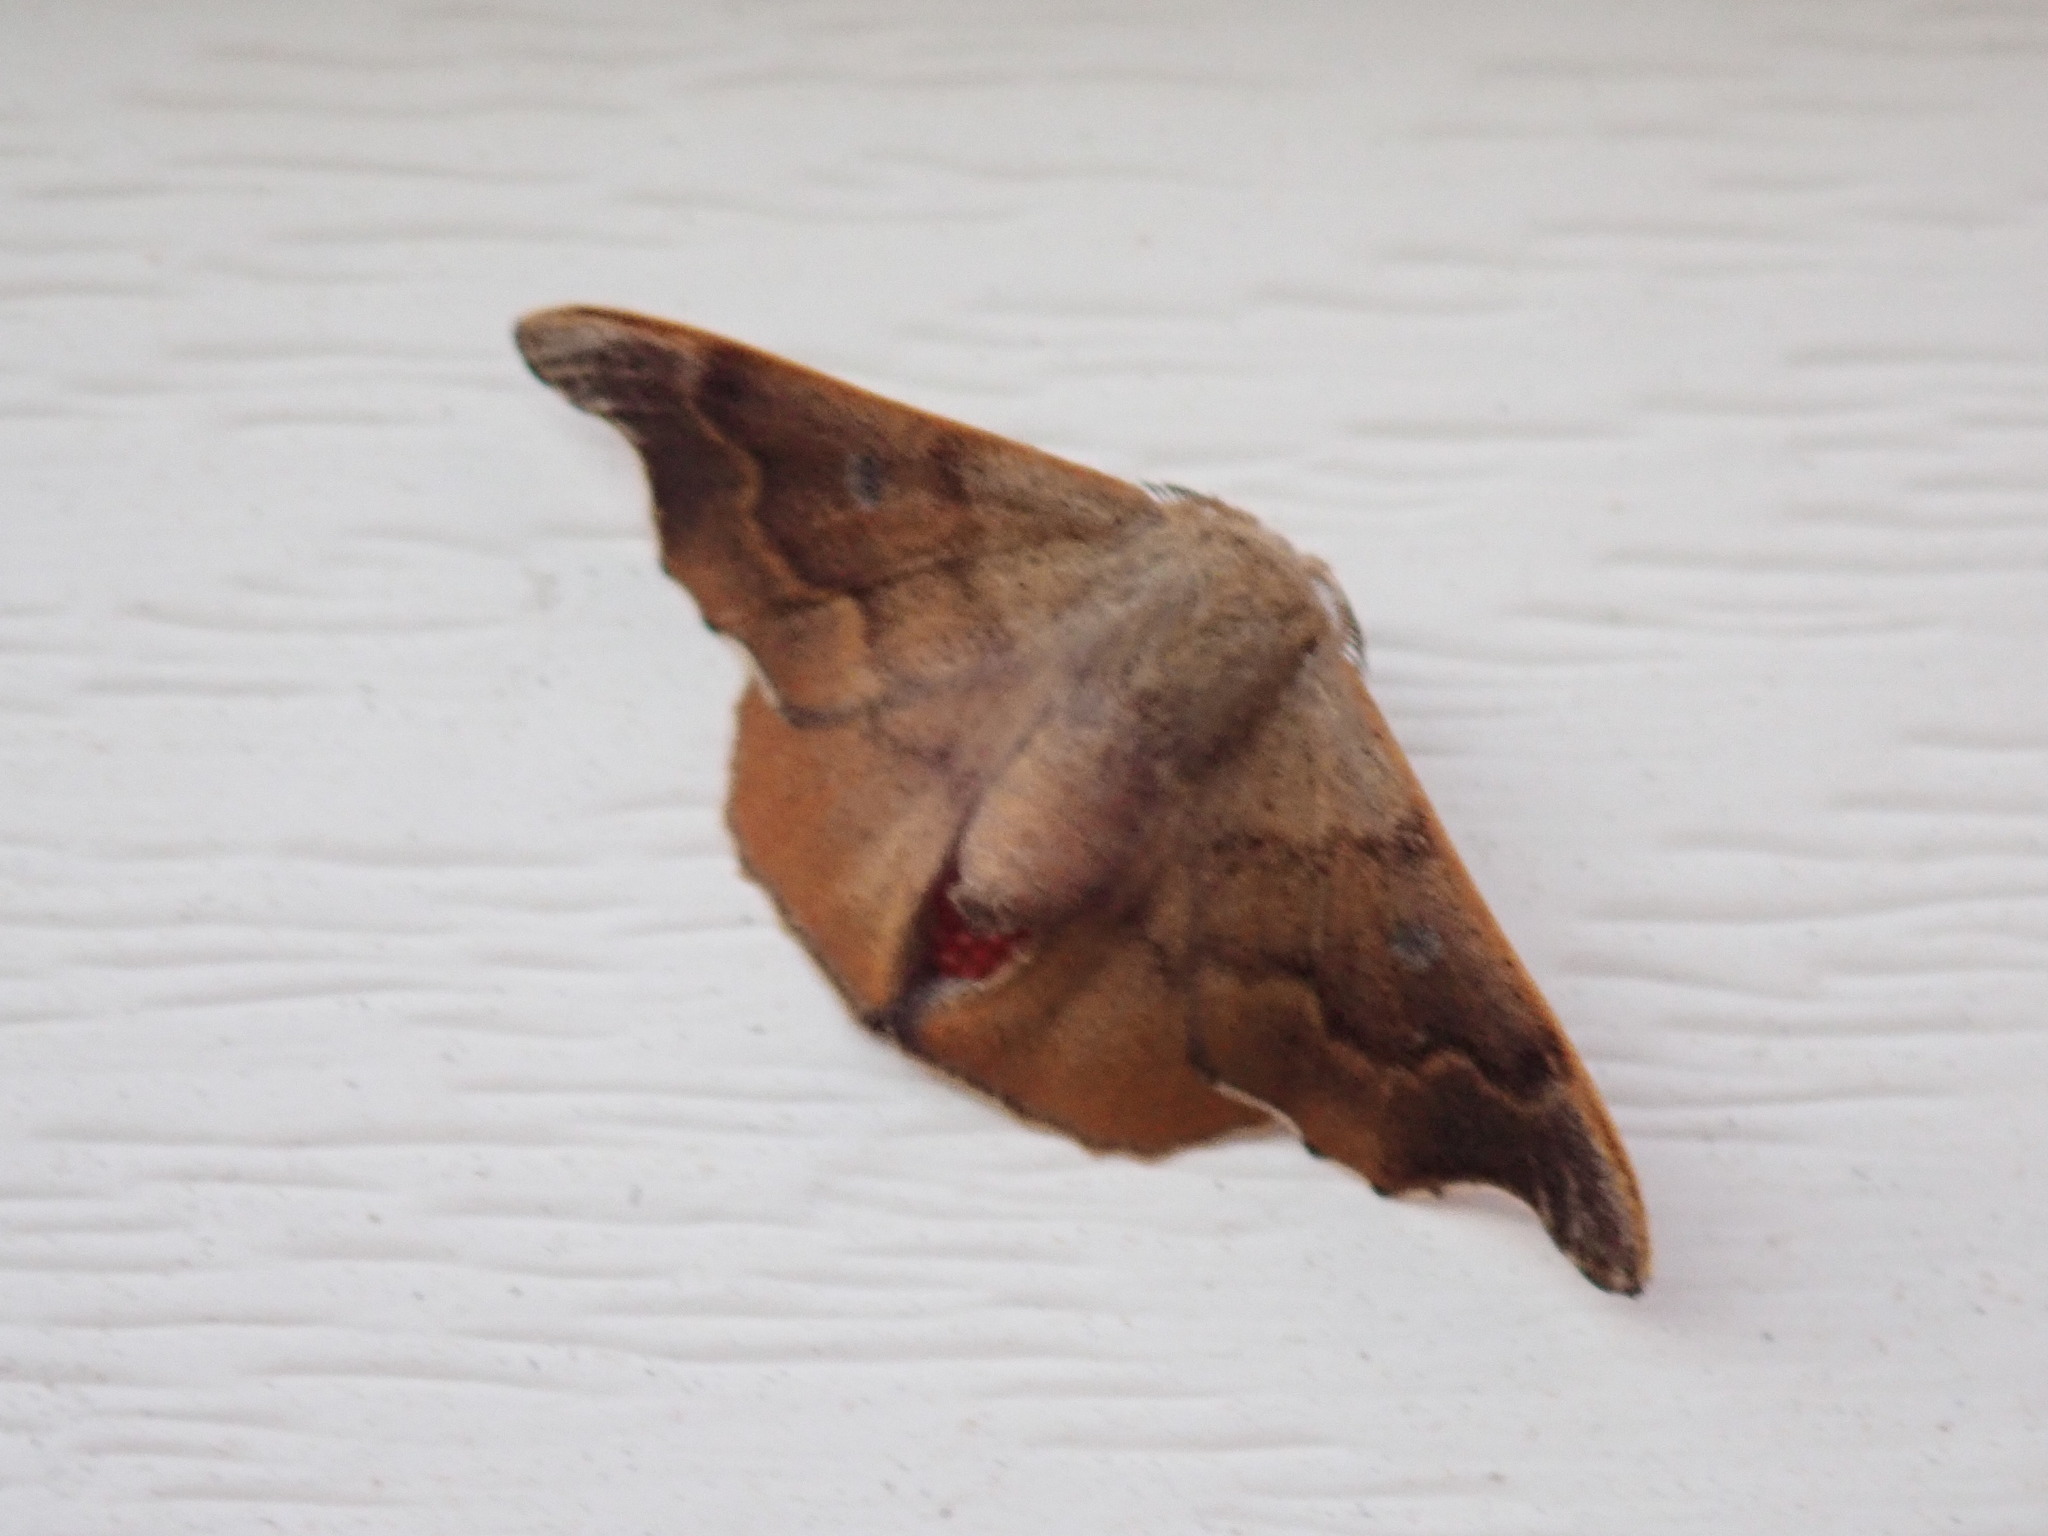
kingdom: Animalia
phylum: Arthropoda
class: Insecta
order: Lepidoptera
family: Mimallonidae
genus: Lacosoma
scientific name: Lacosoma chiridota
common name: Scalloped sack-bearer moth
